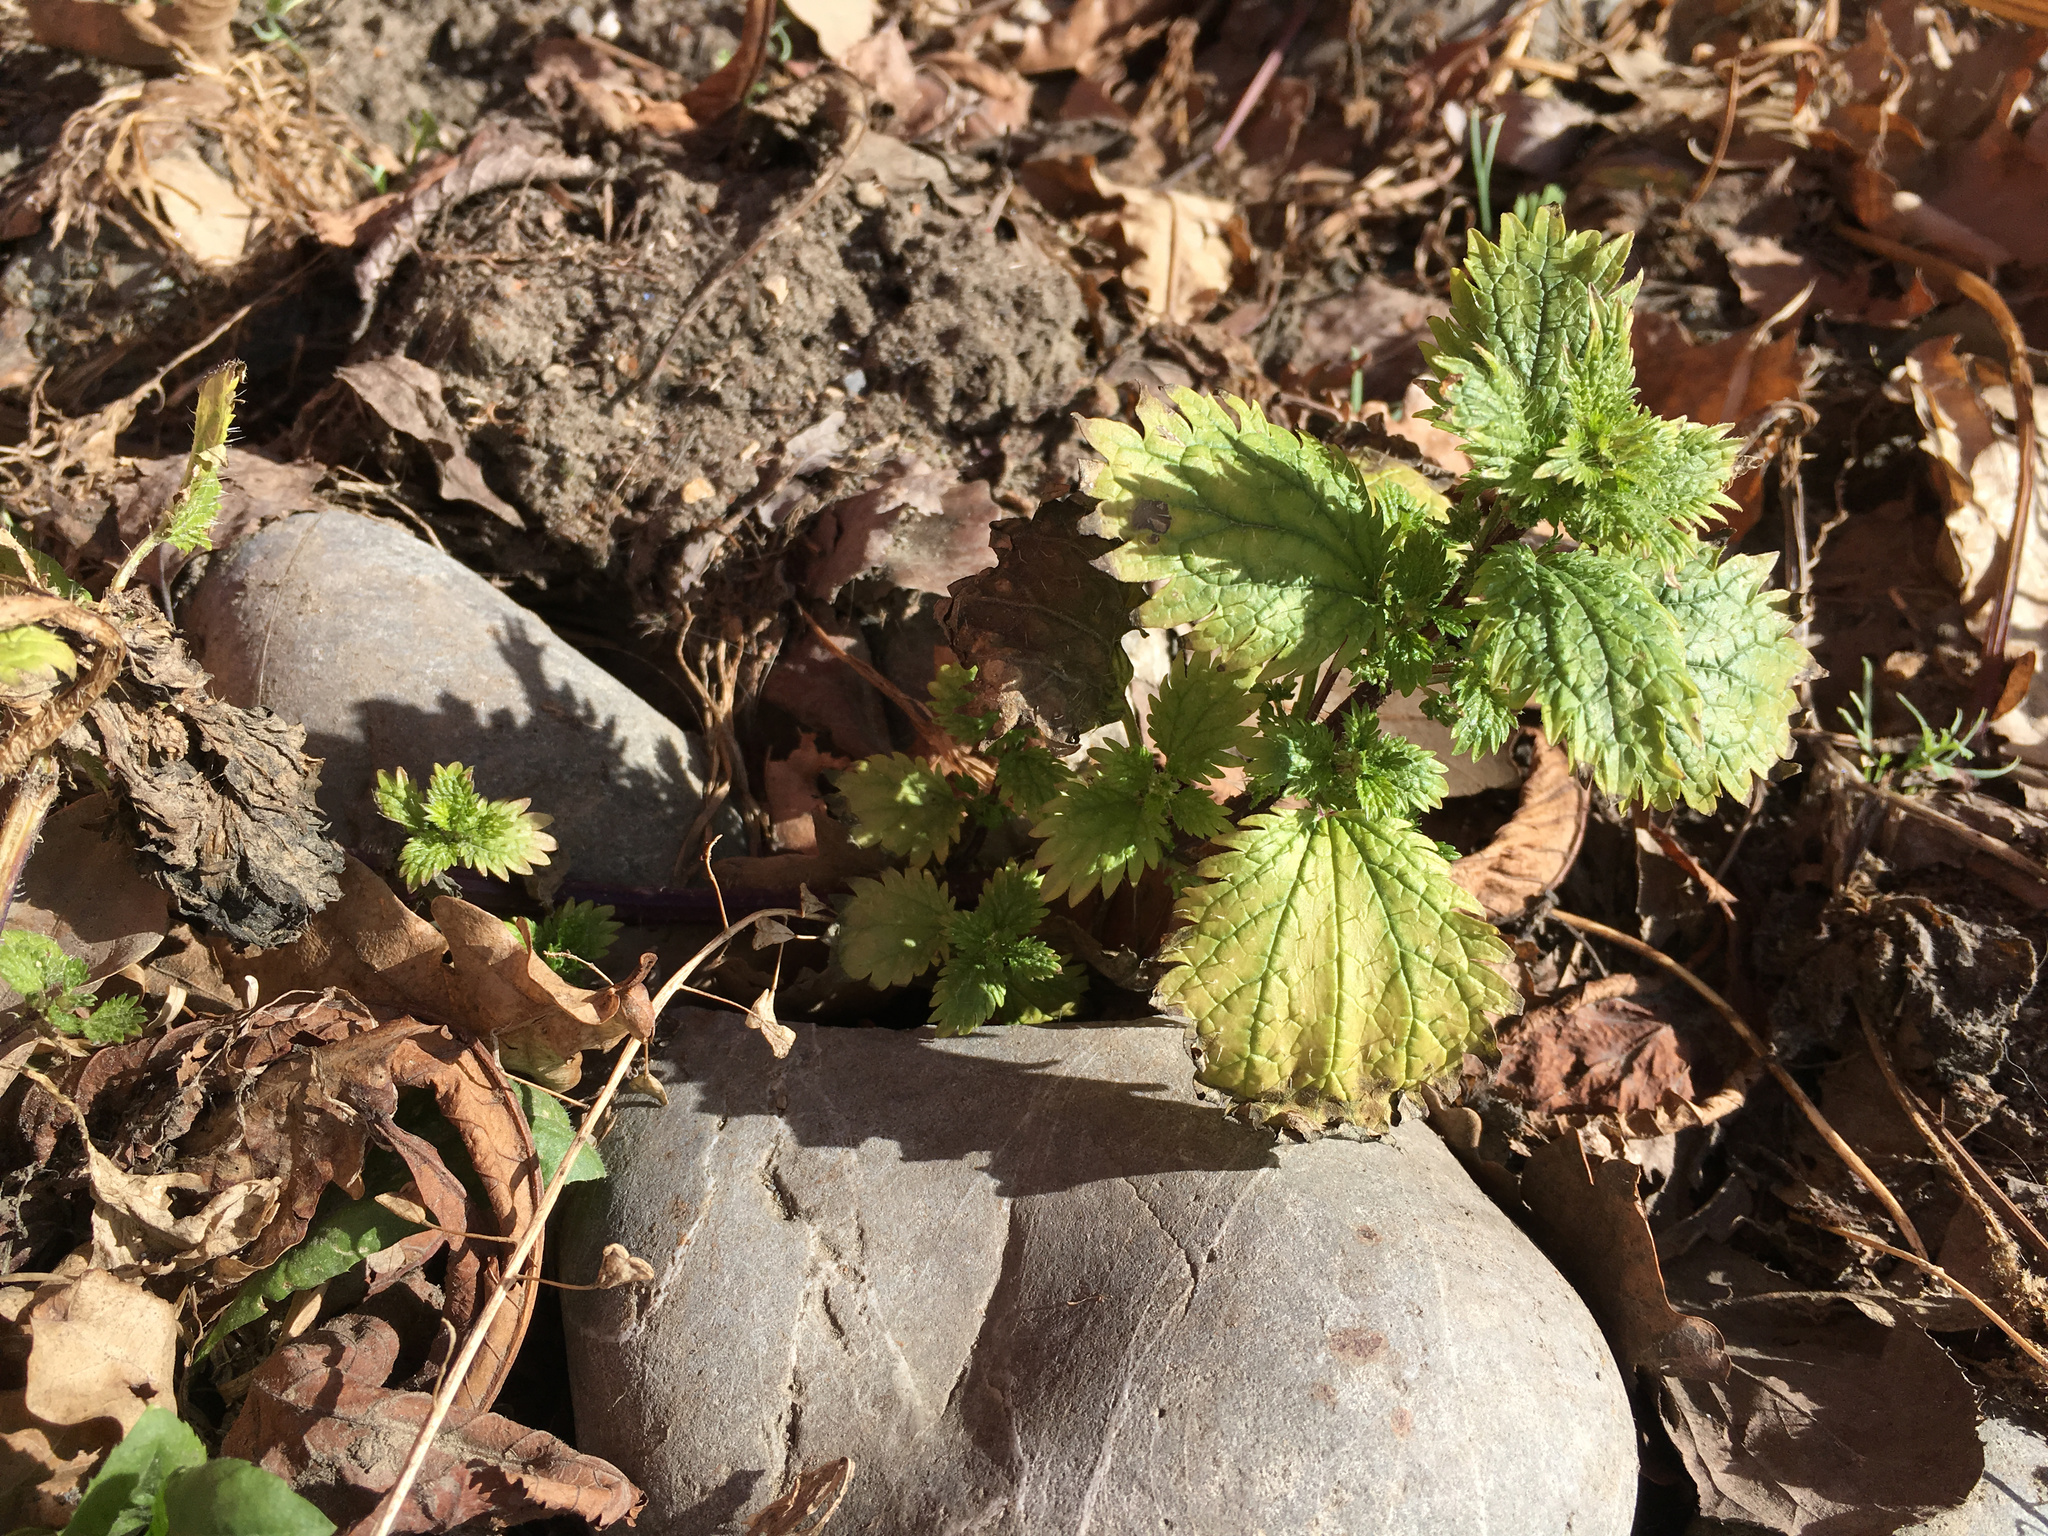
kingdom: Plantae
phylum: Tracheophyta
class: Magnoliopsida
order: Rosales
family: Urticaceae
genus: Urtica
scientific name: Urtica urens
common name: Dwarf nettle
